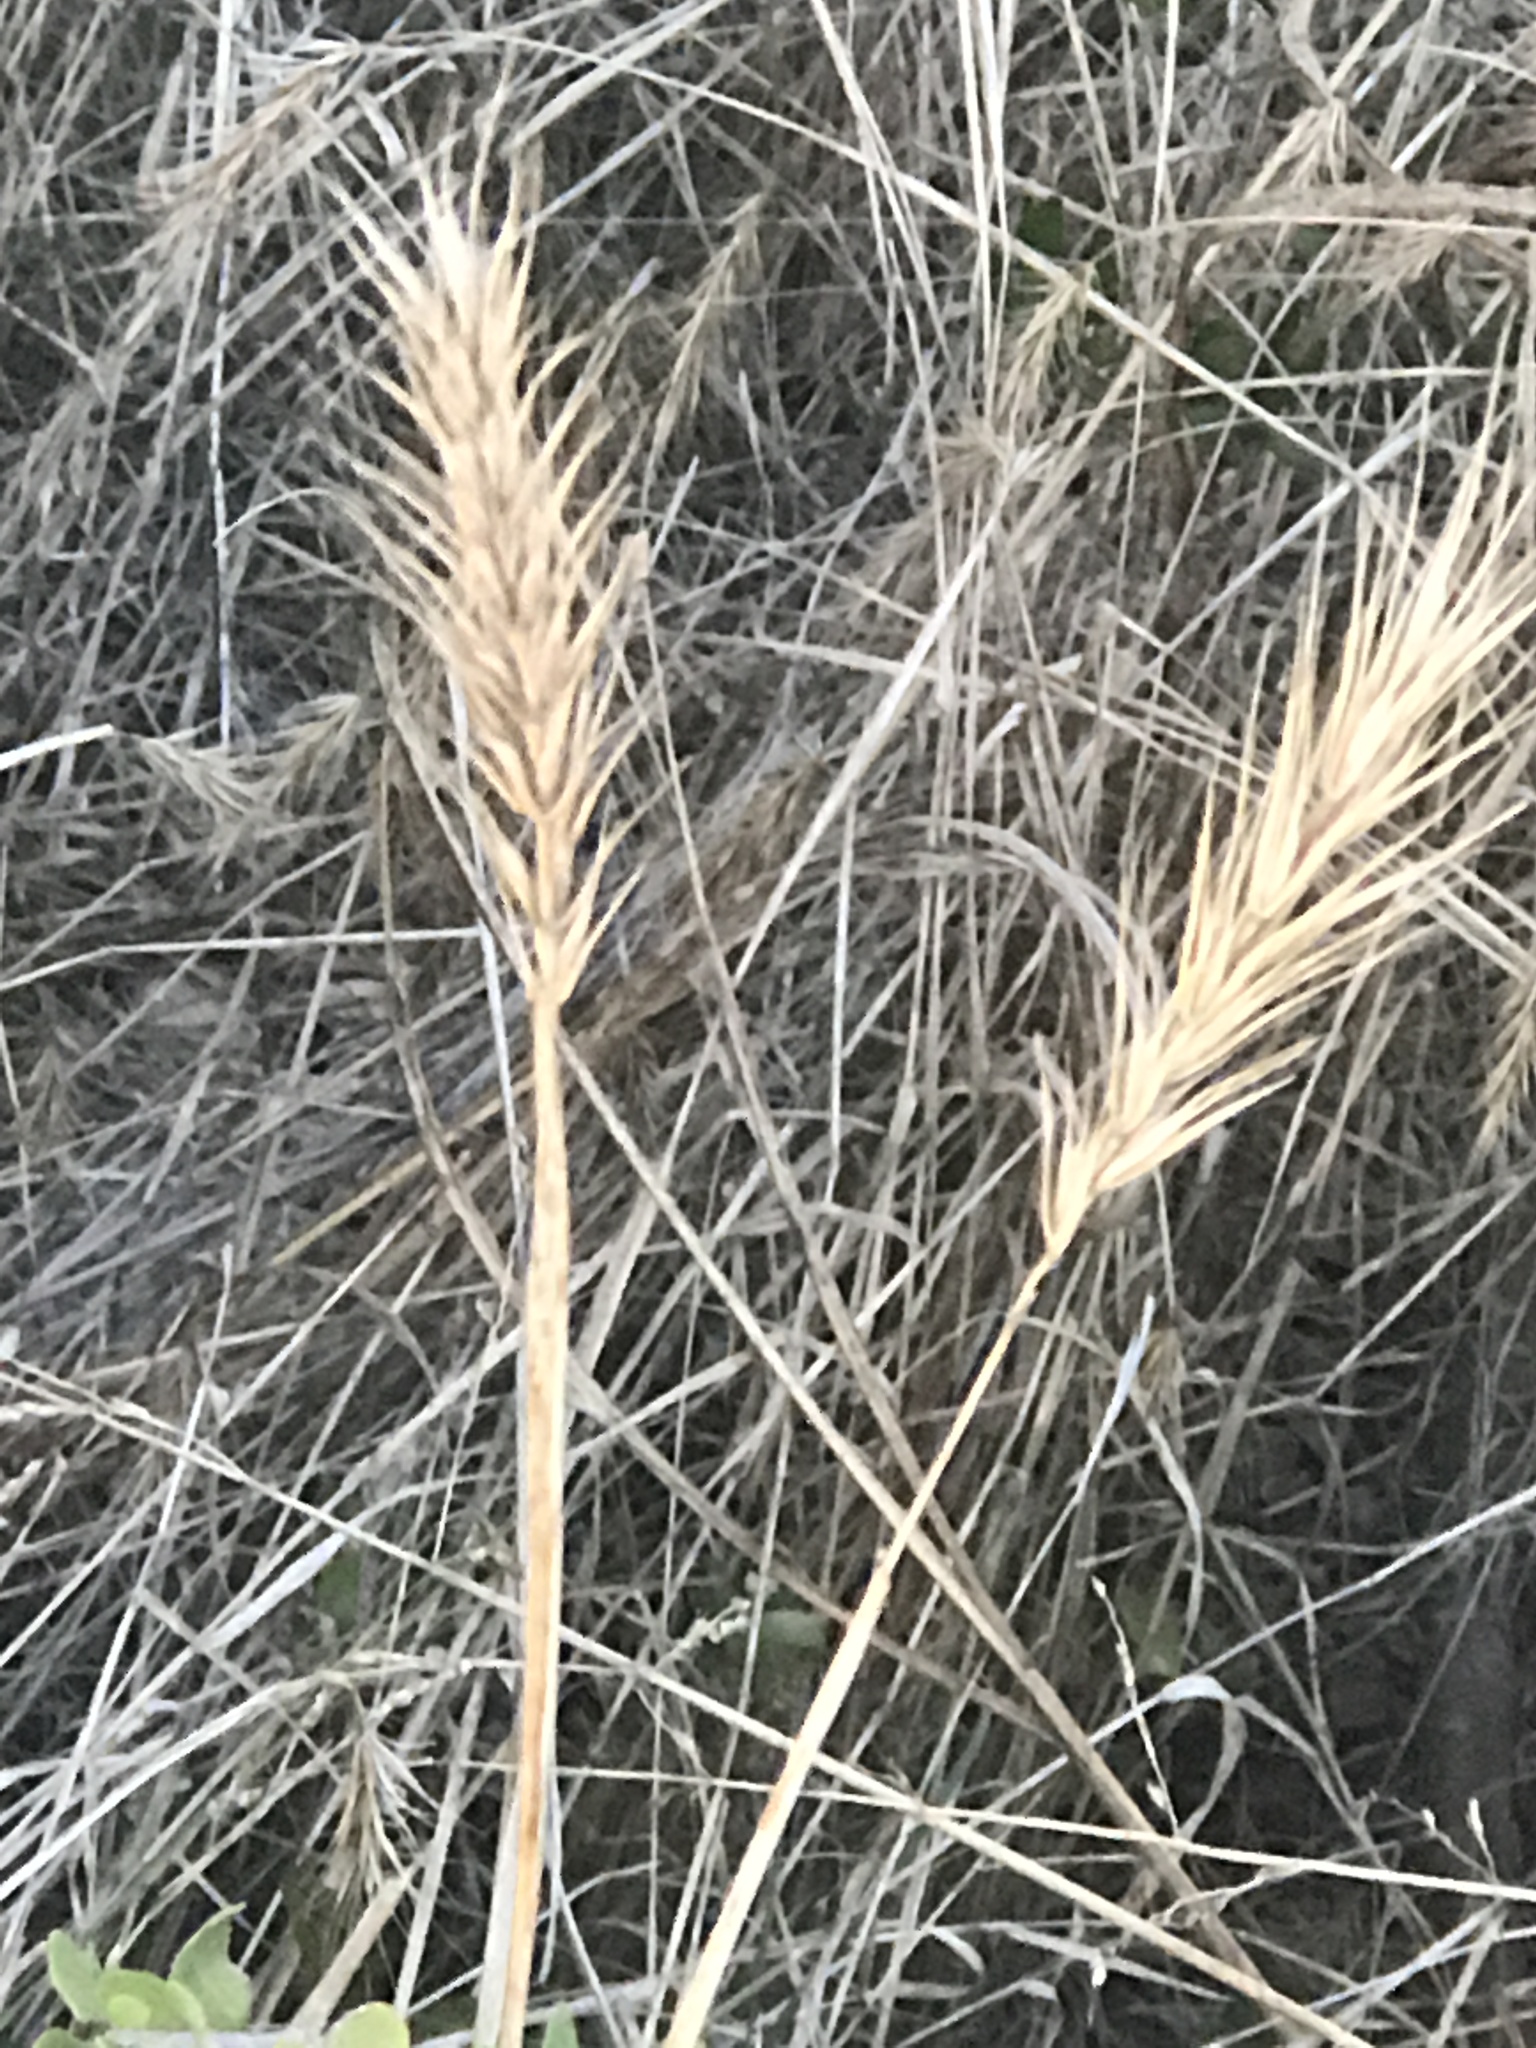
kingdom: Plantae
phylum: Tracheophyta
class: Liliopsida
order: Poales
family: Poaceae
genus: Elymus
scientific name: Elymus virginicus
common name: Common eastern wildrye
